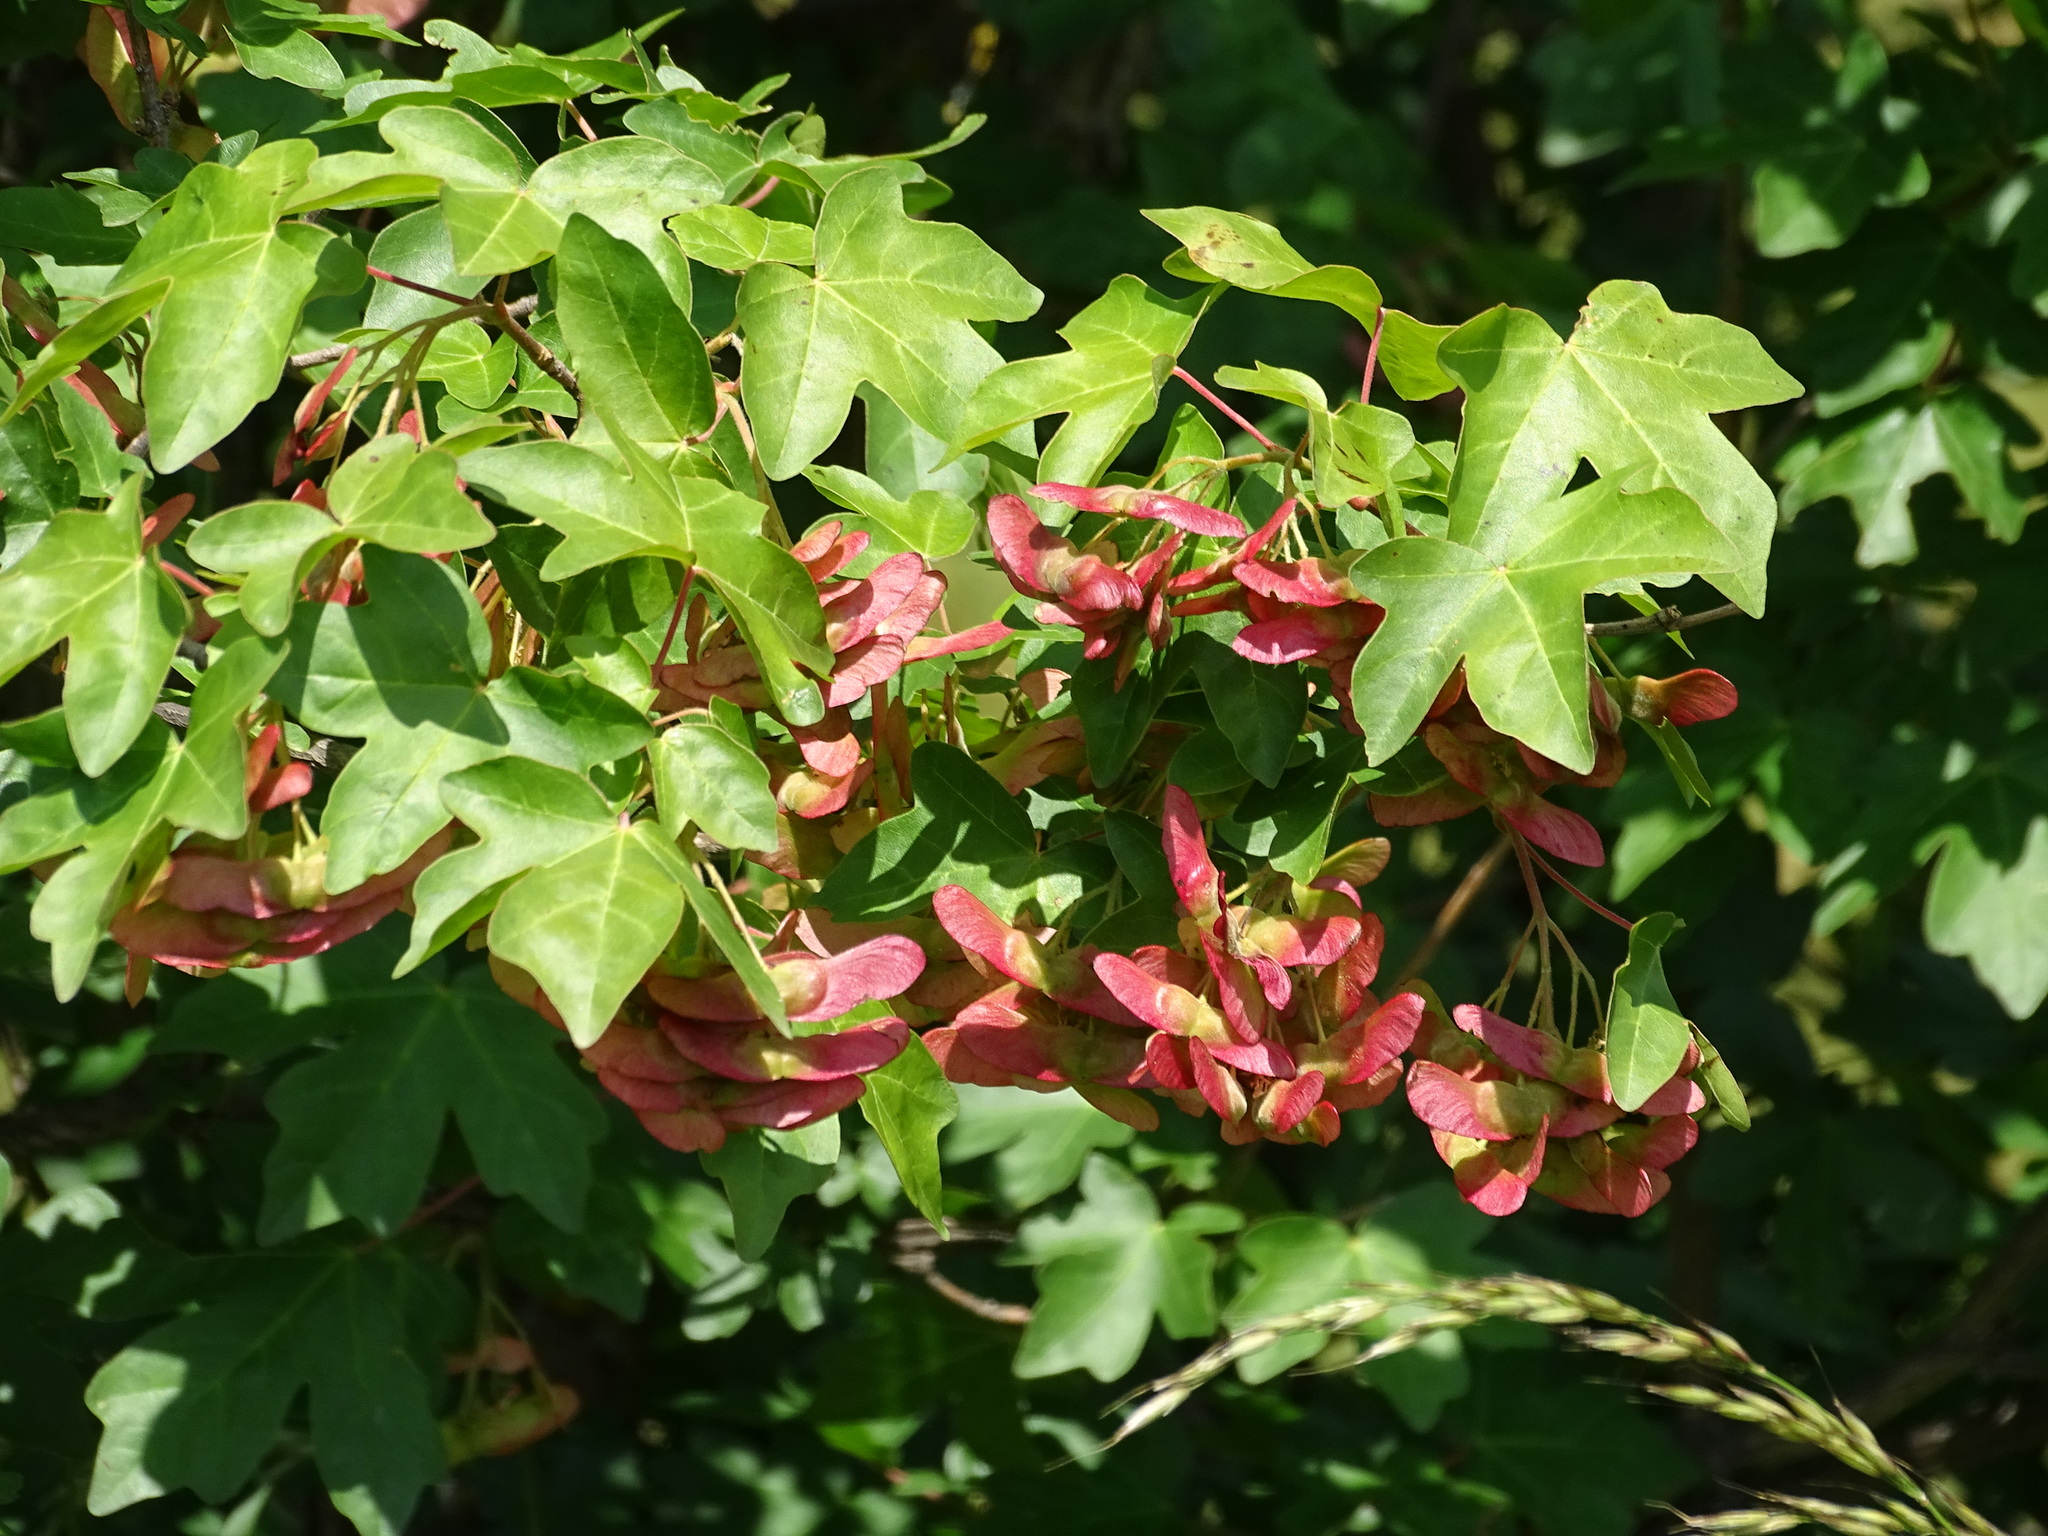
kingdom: Plantae
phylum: Tracheophyta
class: Magnoliopsida
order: Sapindales
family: Sapindaceae
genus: Acer
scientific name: Acer campestre
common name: Field maple
